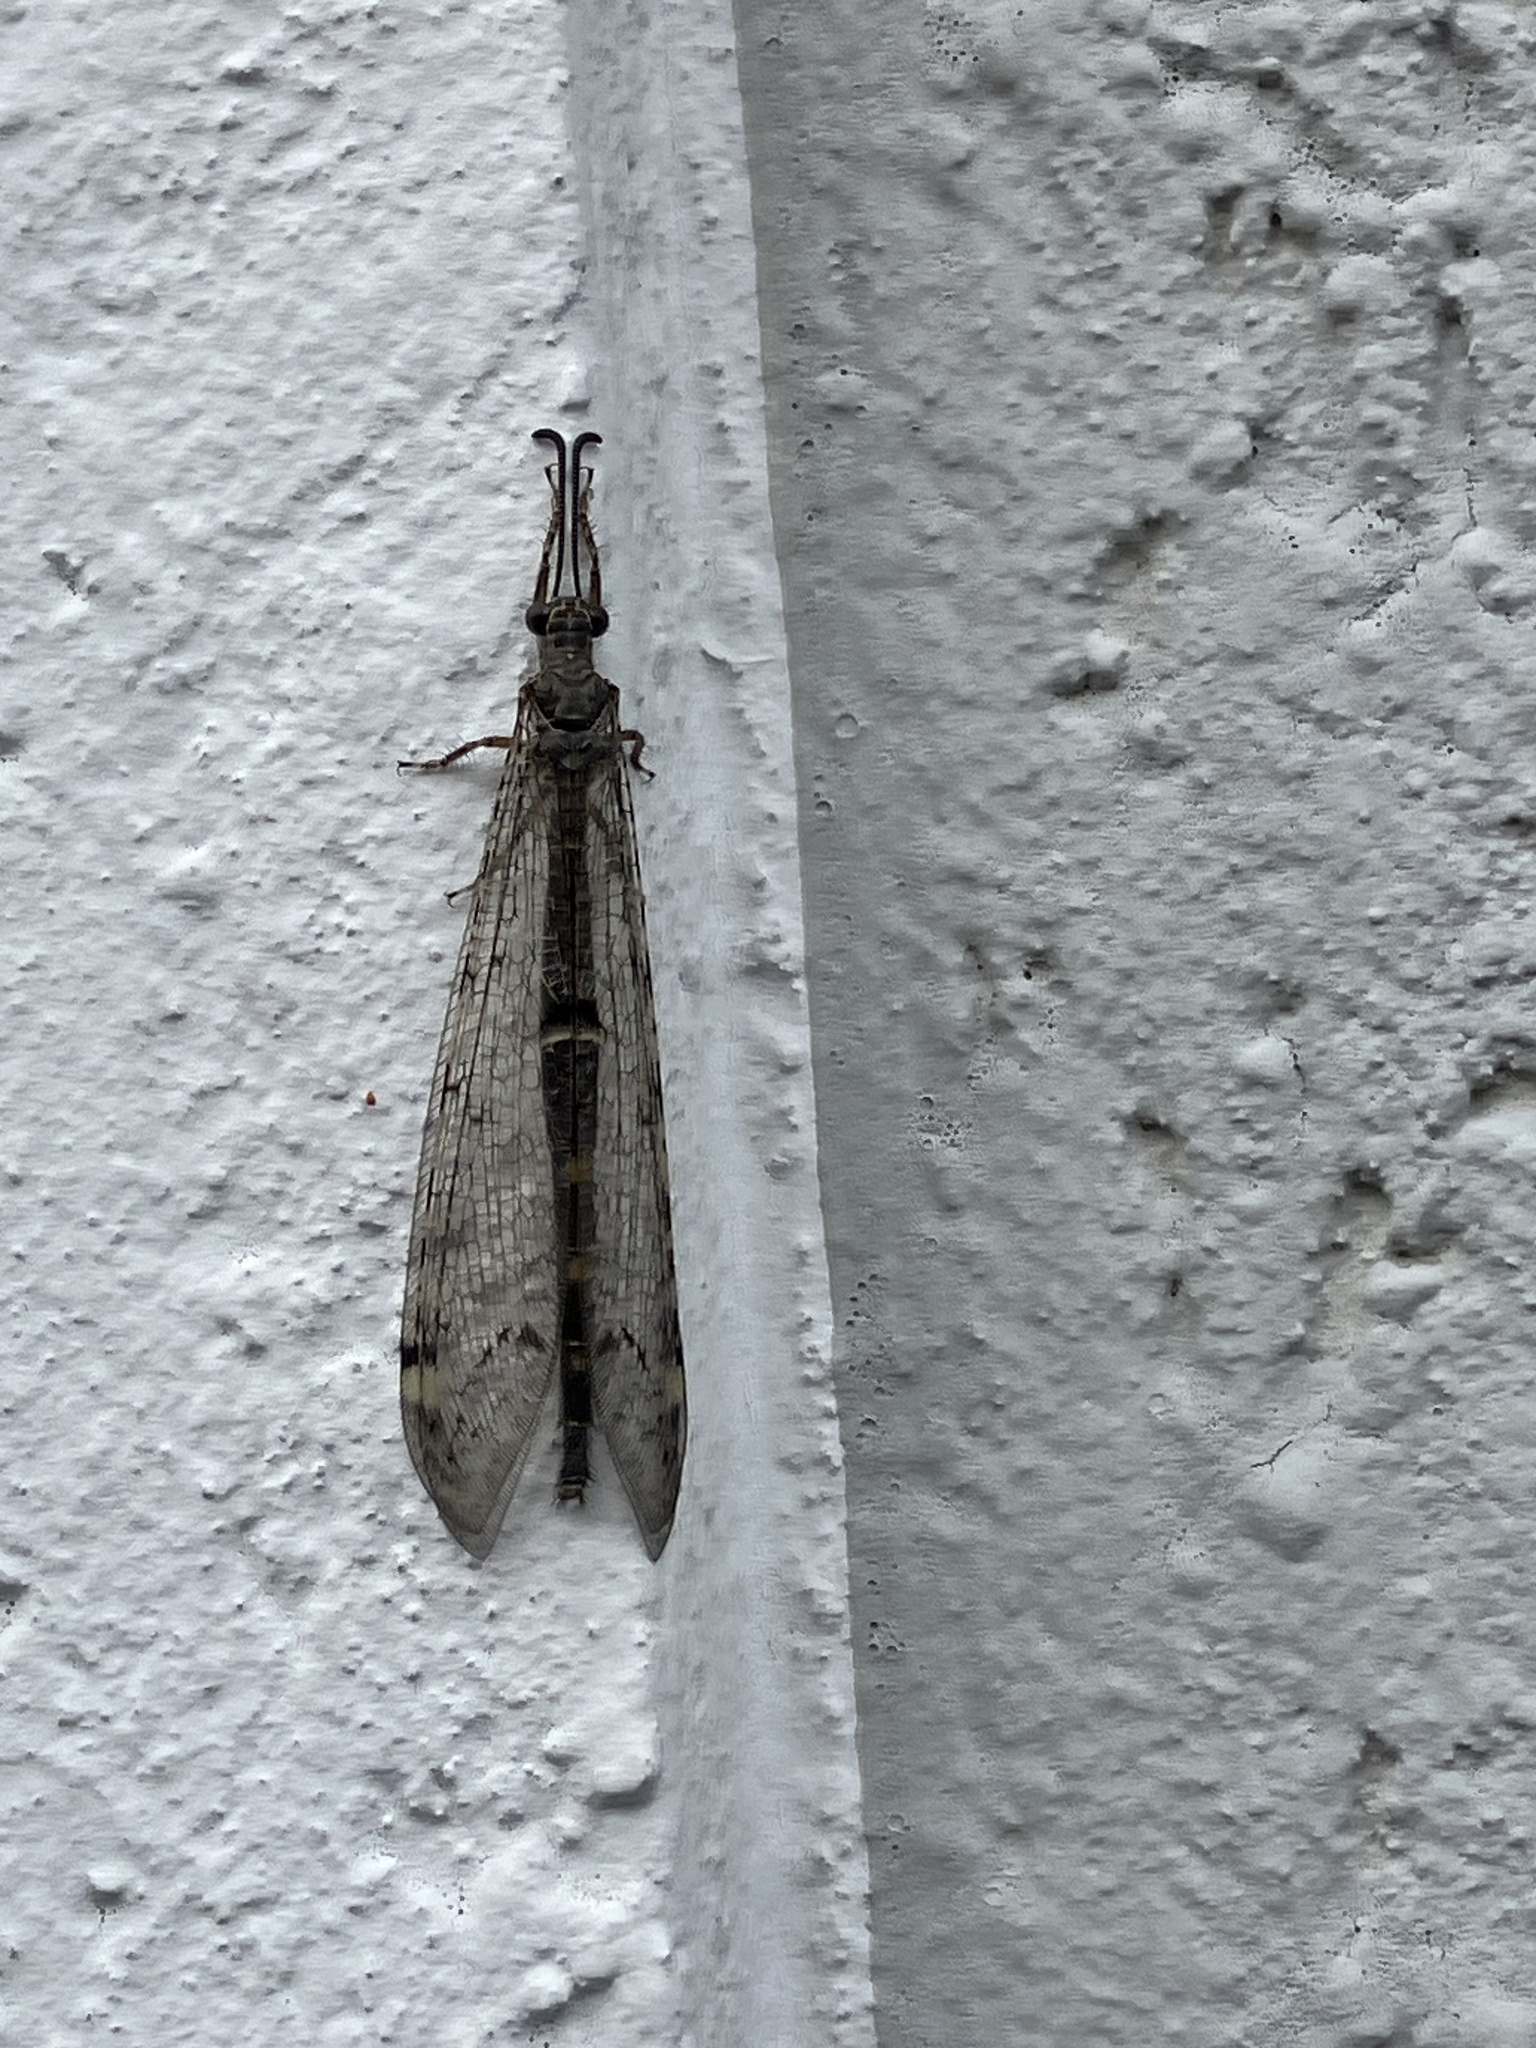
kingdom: Animalia
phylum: Arthropoda
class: Insecta
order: Neuroptera
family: Myrmeleontidae
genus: Distoleon
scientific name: Distoleon tetragrammicus
